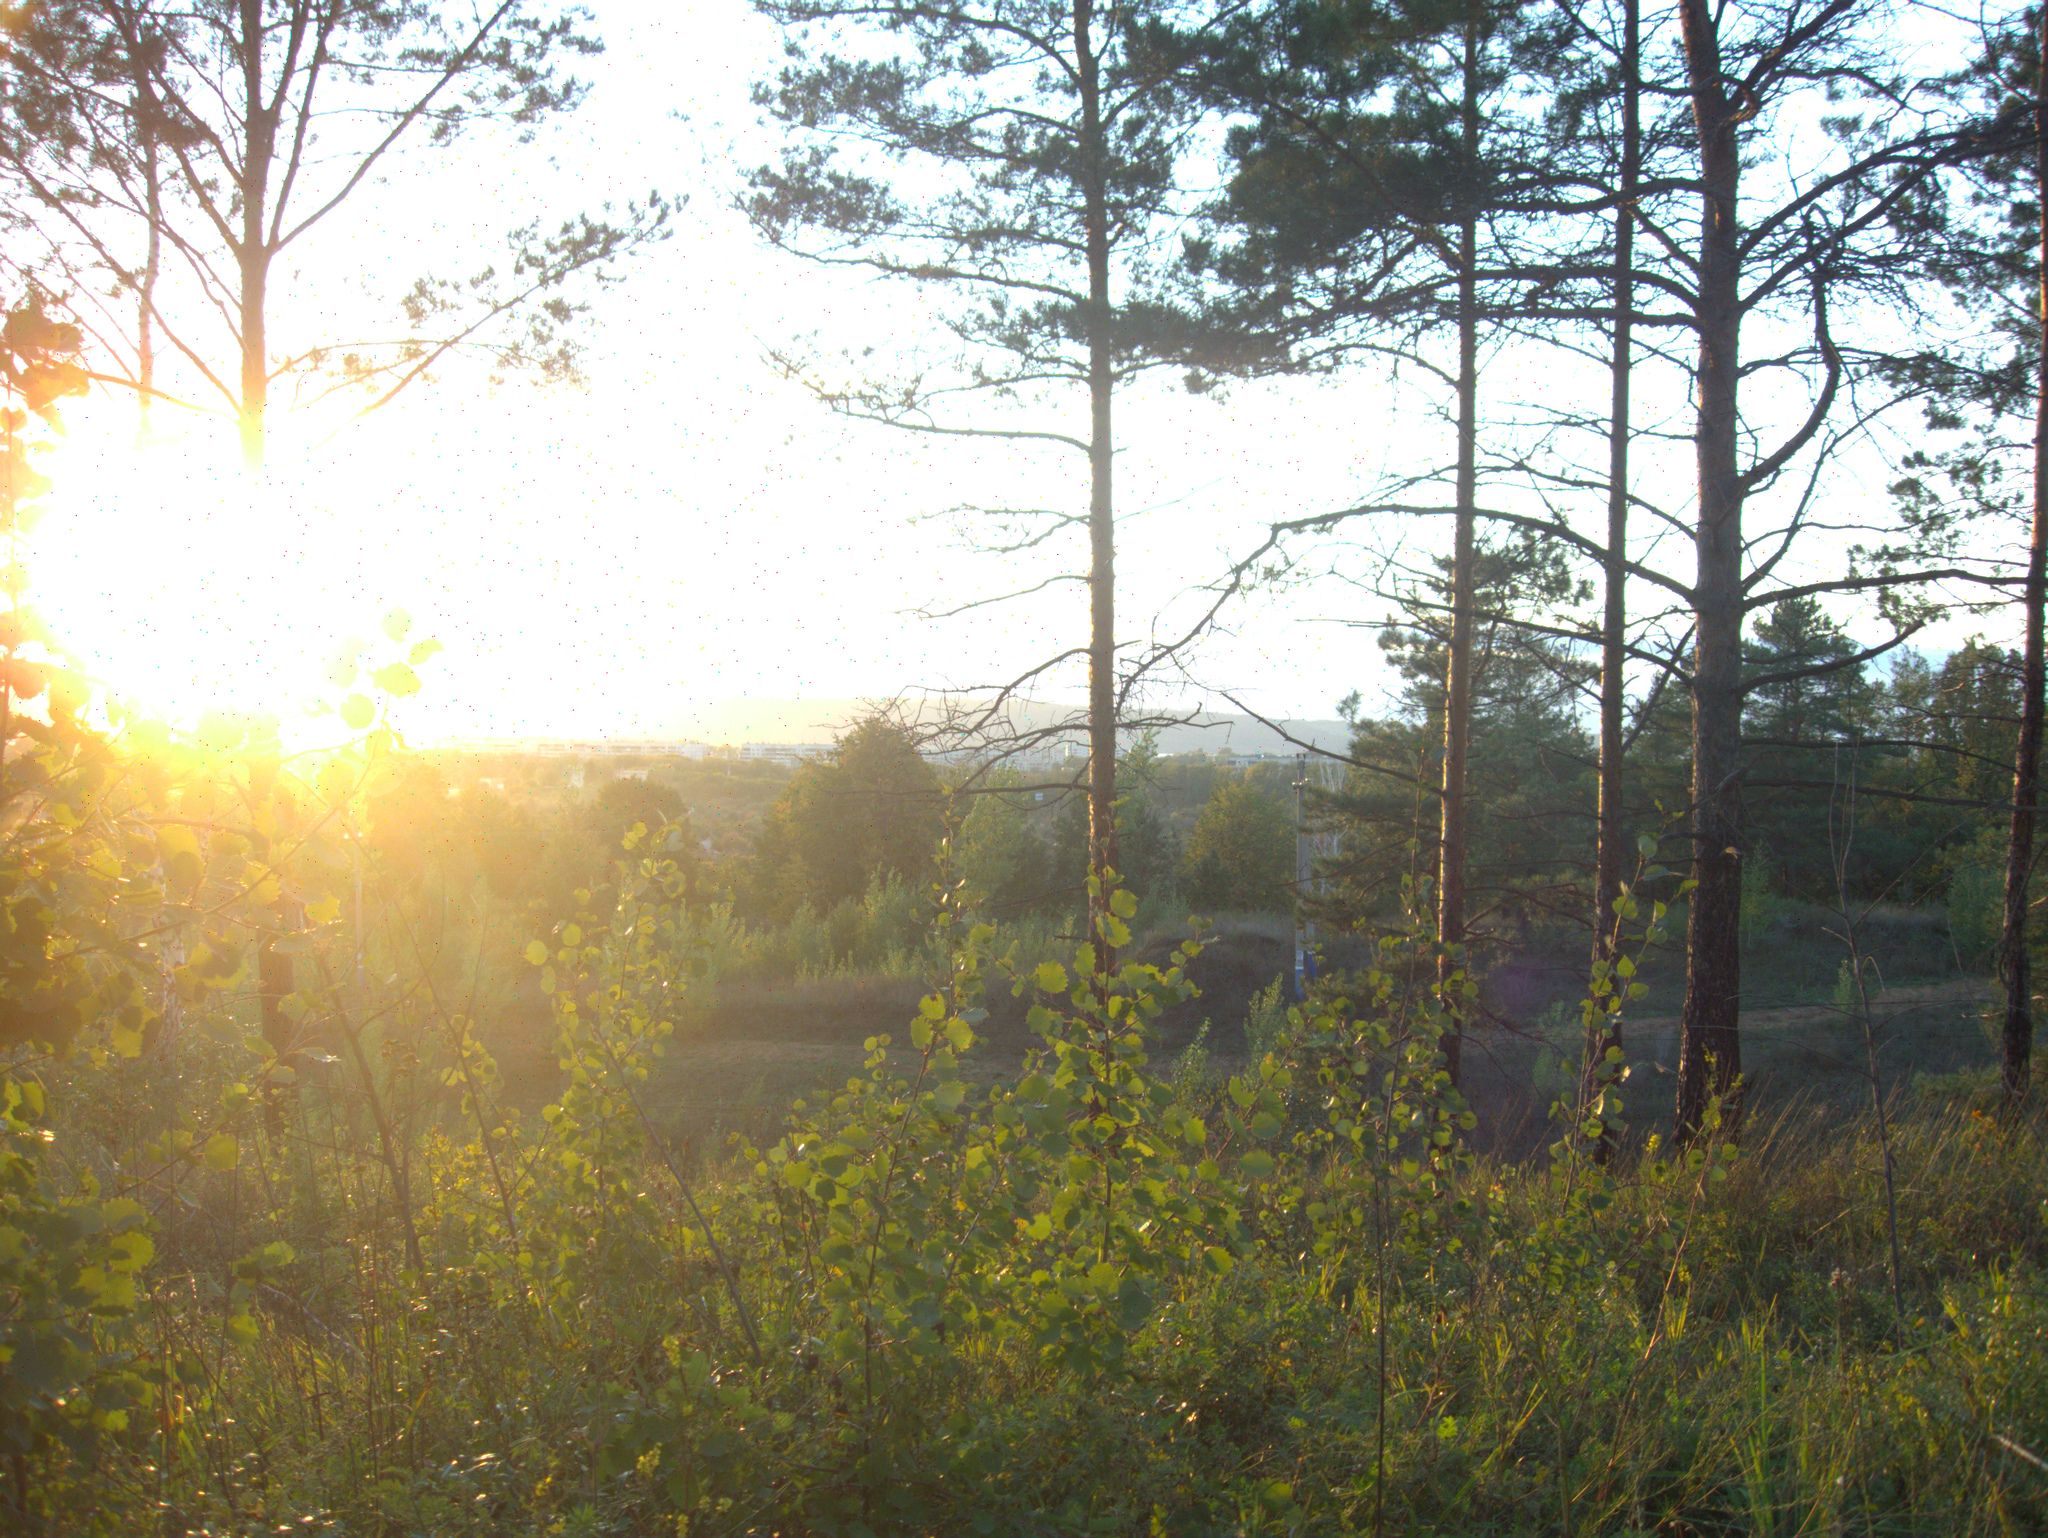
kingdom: Plantae
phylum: Tracheophyta
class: Pinopsida
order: Pinales
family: Pinaceae
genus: Pinus
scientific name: Pinus sylvestris
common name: Scots pine
